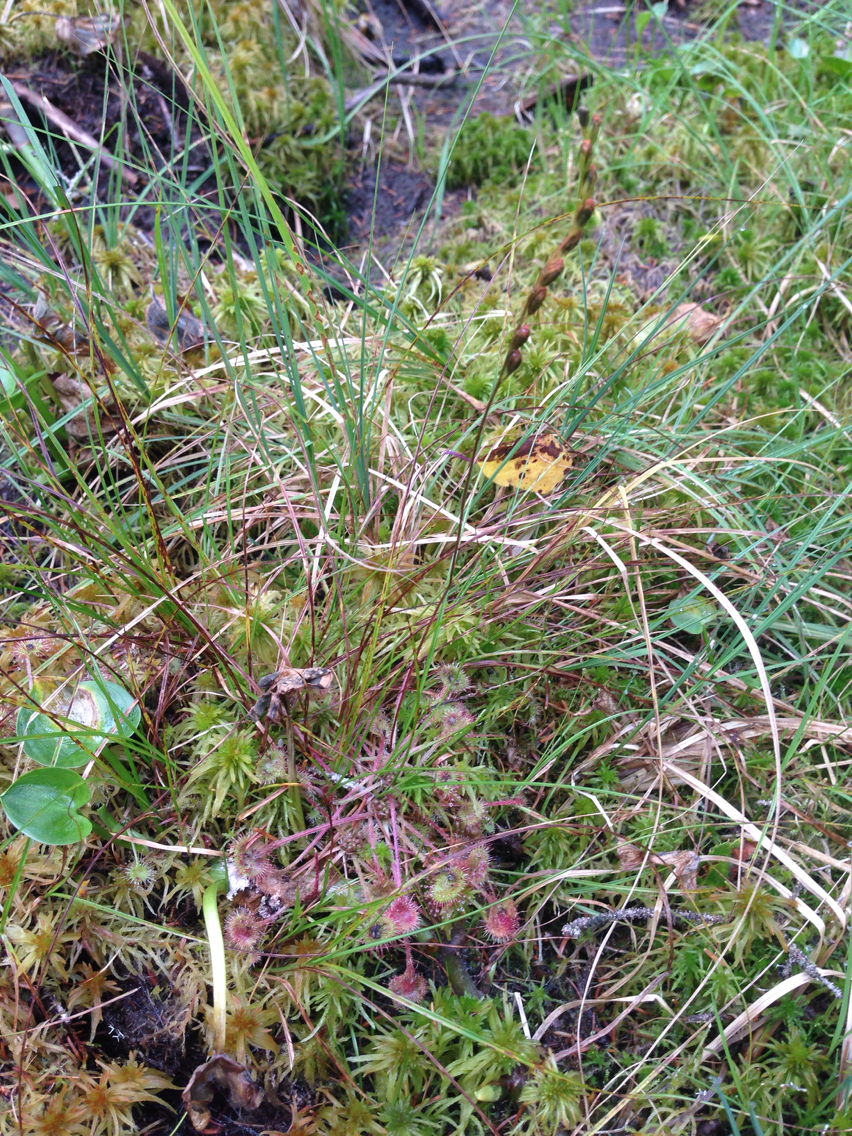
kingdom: Plantae
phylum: Tracheophyta
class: Magnoliopsida
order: Caryophyllales
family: Droseraceae
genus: Drosera
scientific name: Drosera rotundifolia
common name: Round-leaved sundew
